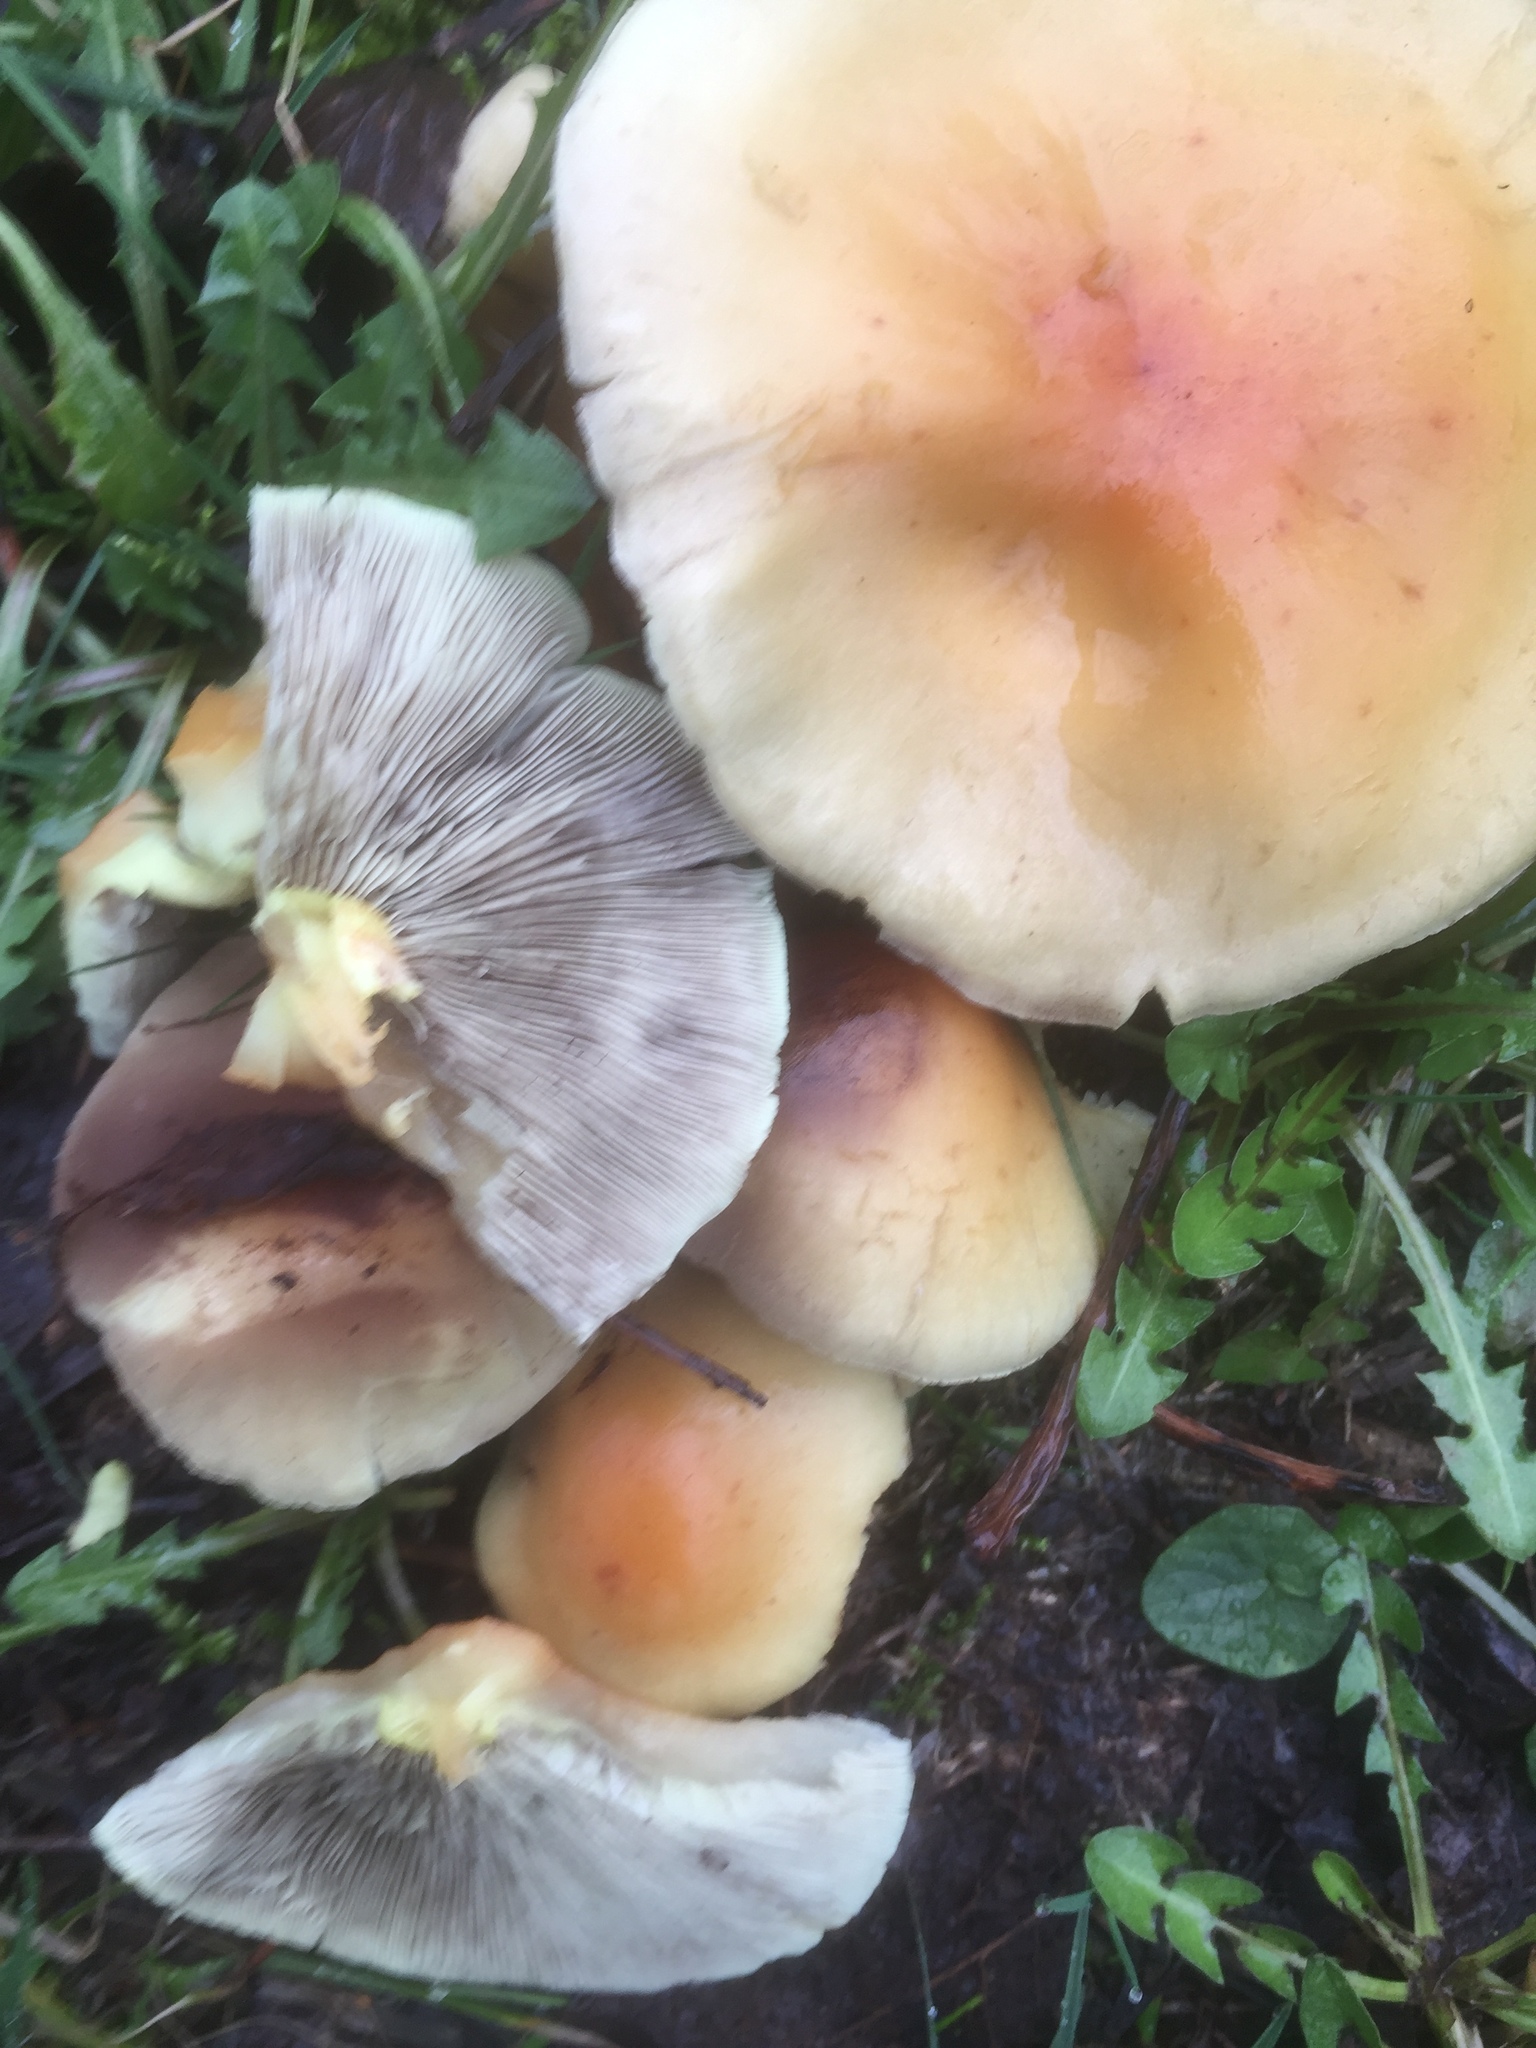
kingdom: Fungi
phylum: Basidiomycota
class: Agaricomycetes
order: Agaricales
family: Strophariaceae
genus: Hypholoma
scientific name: Hypholoma fasciculare
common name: Sulphur tuft
